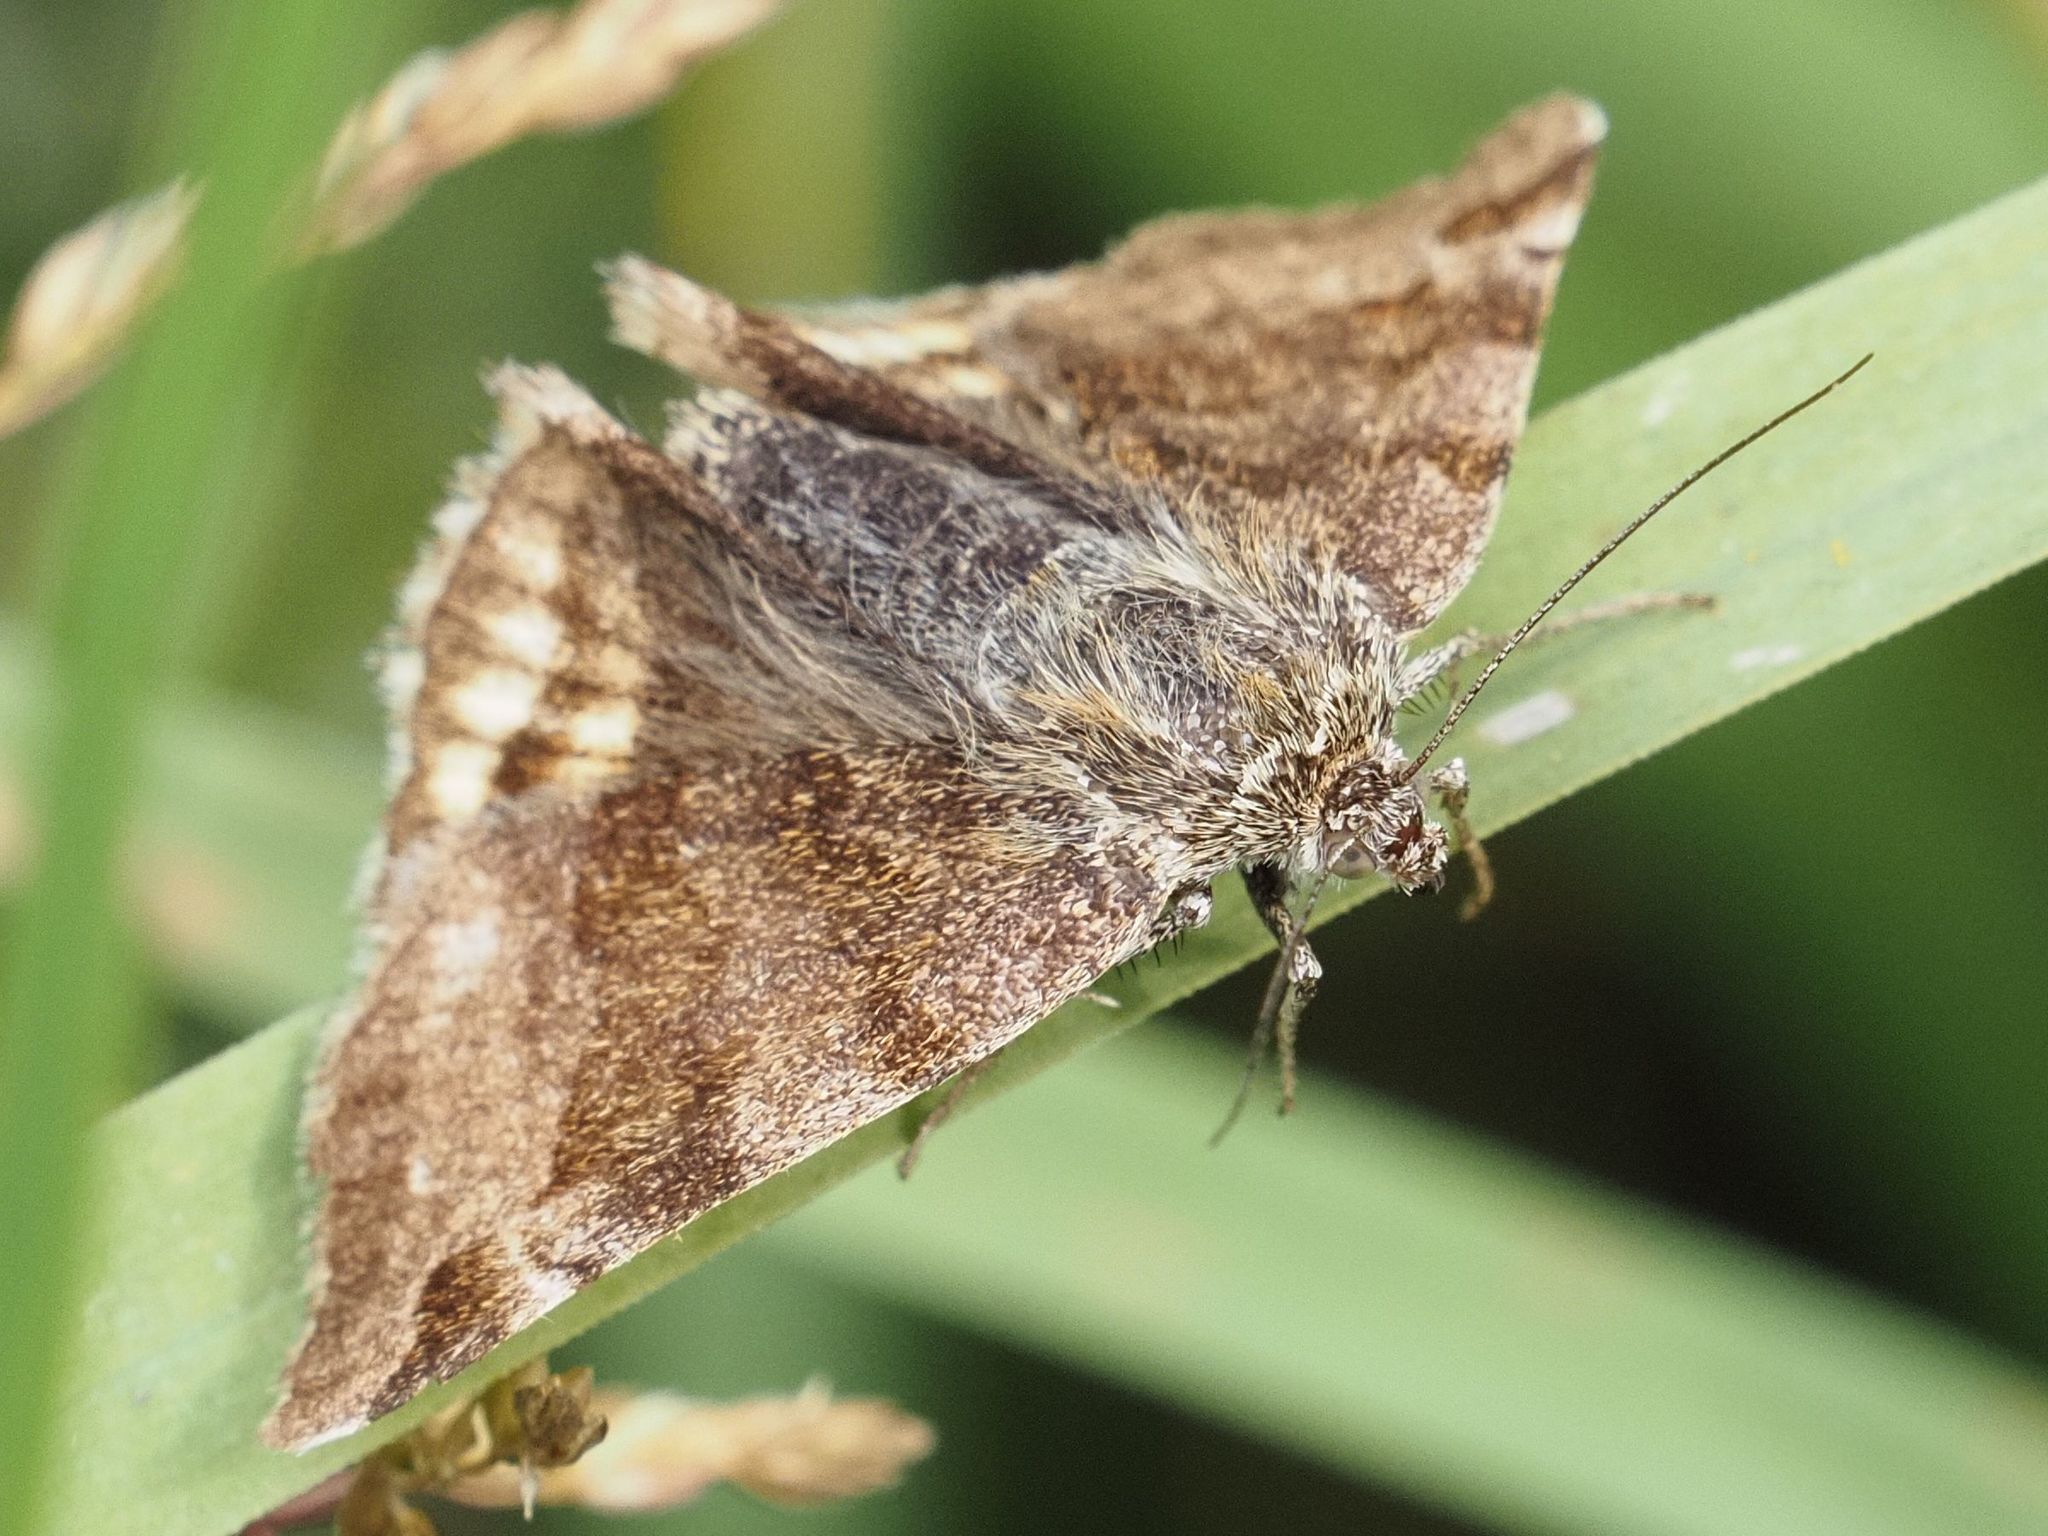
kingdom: Animalia
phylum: Arthropoda
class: Insecta
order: Lepidoptera
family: Erebidae
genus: Euclidia
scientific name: Euclidia glyphica
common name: Burnet companion
